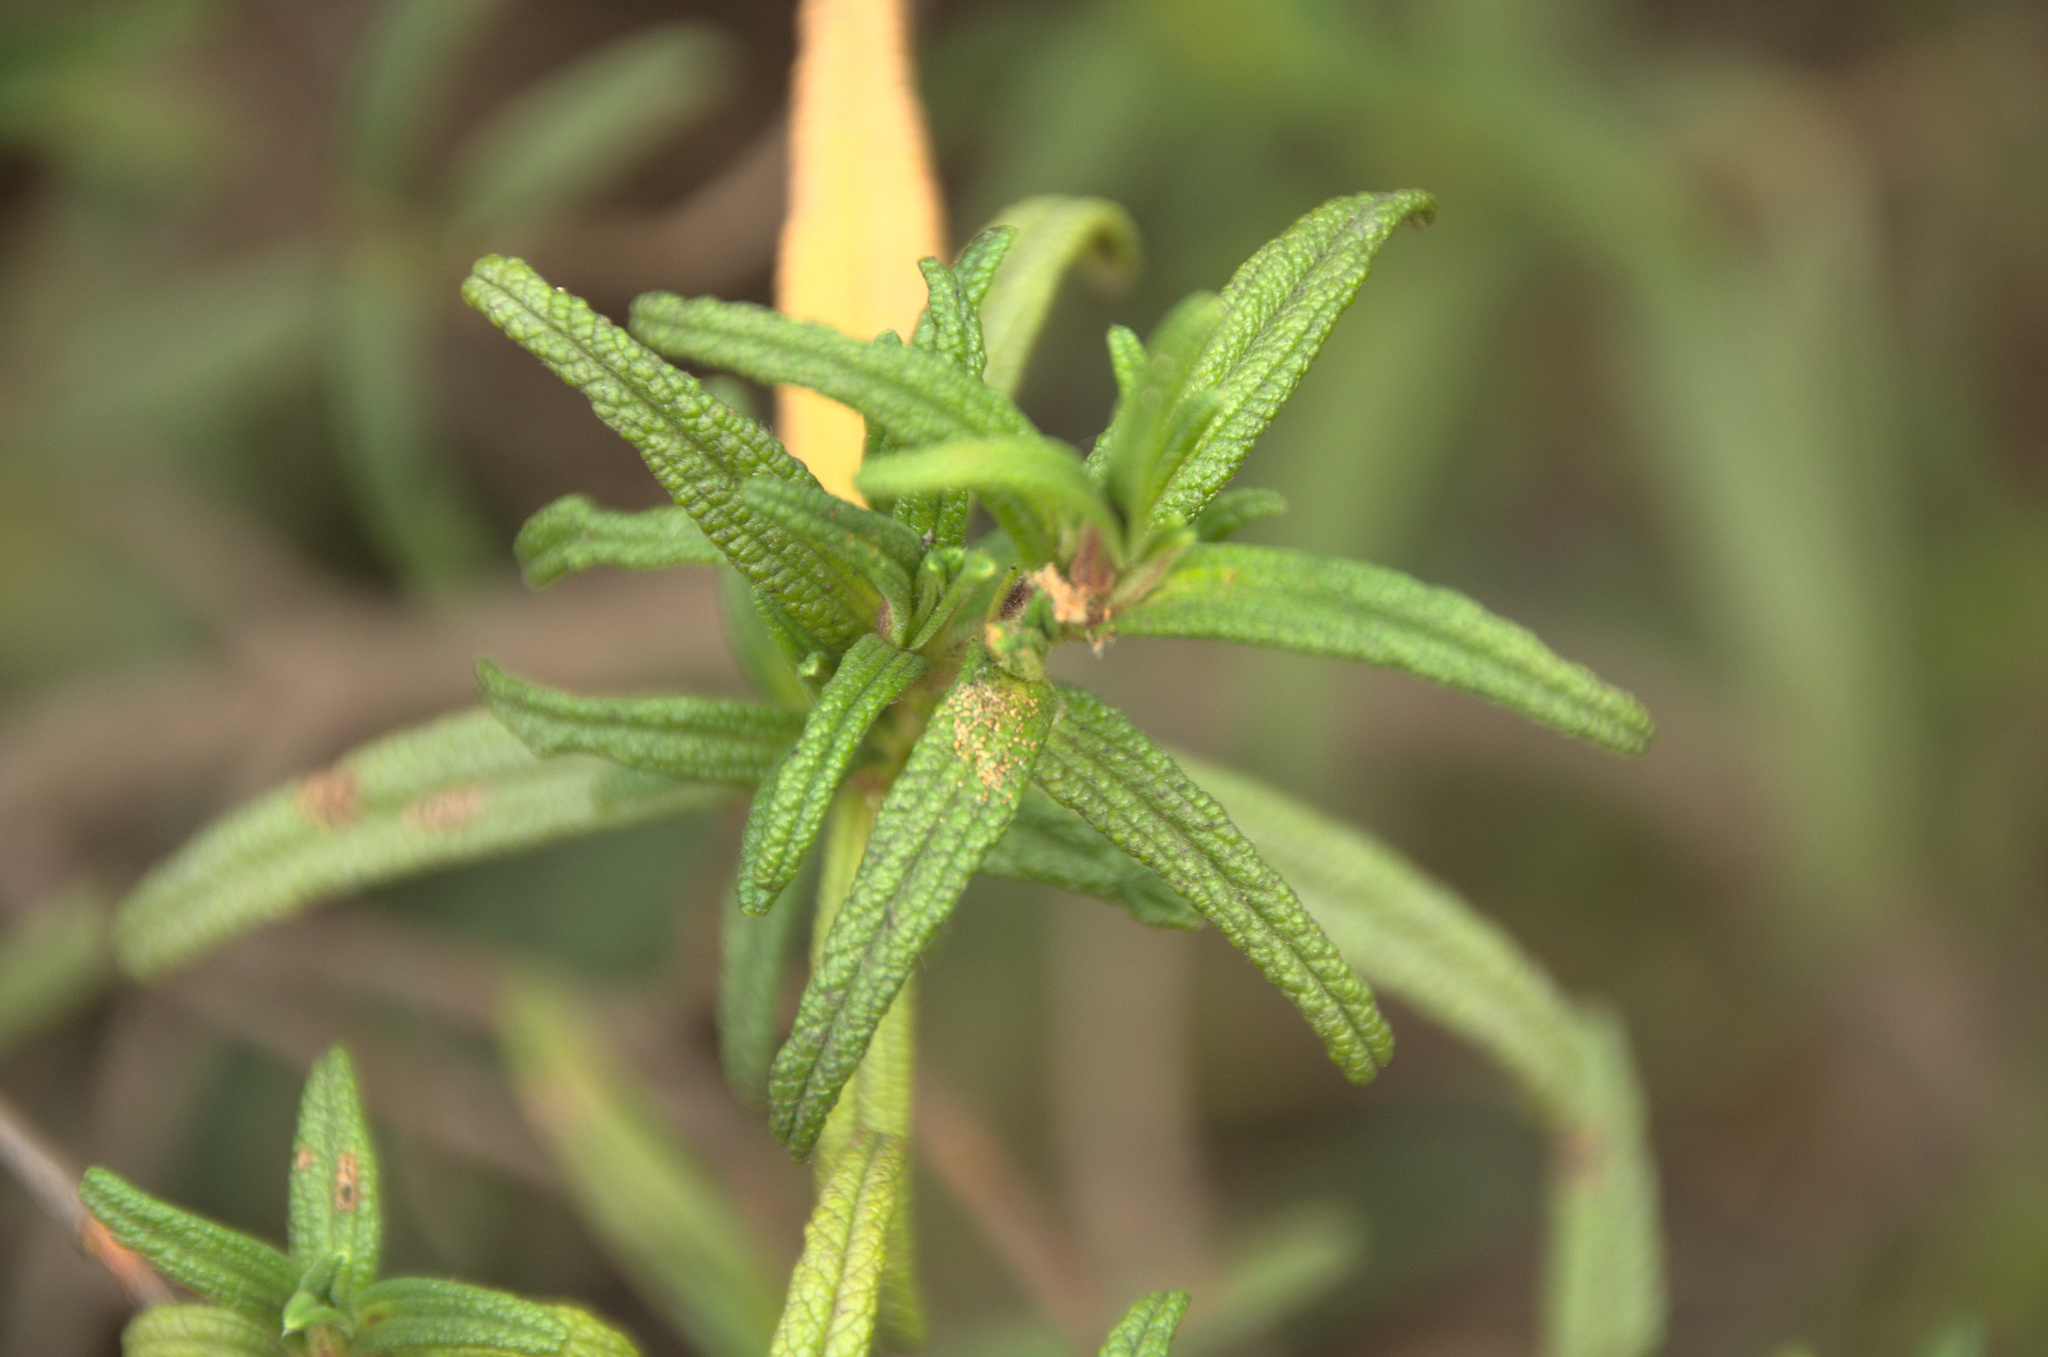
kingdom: Plantae
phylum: Tracheophyta
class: Magnoliopsida
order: Malvales
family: Cistaceae
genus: Cistus
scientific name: Cistus monspeliensis
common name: Montpelier cistus
